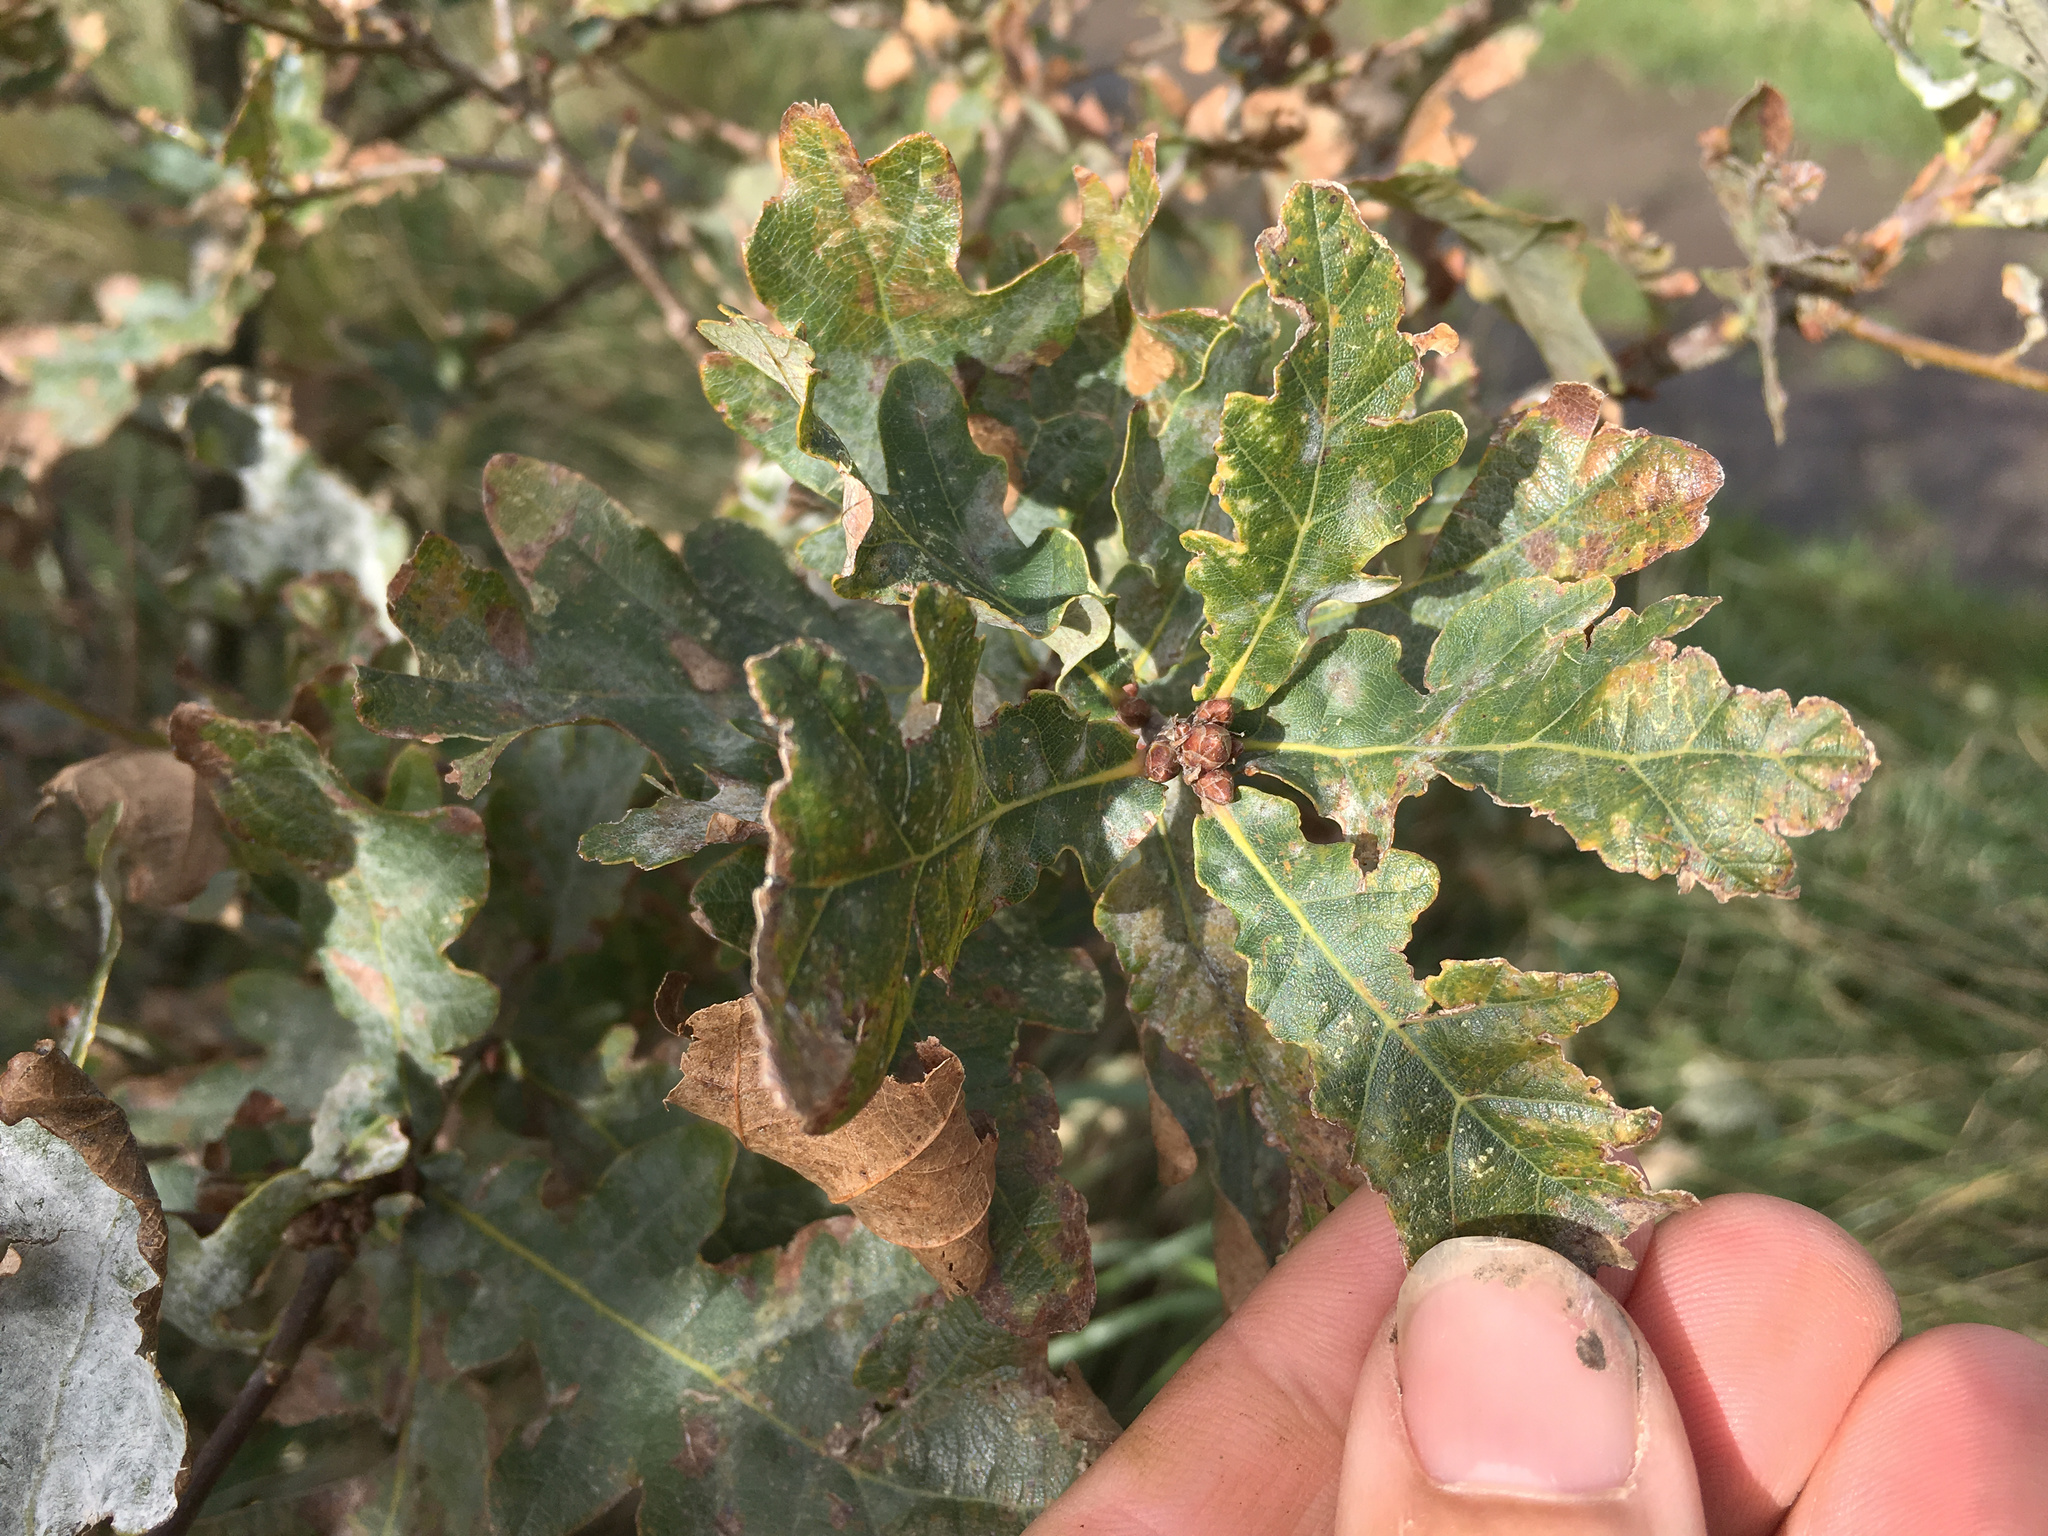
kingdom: Plantae
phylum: Tracheophyta
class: Magnoliopsida
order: Fagales
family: Fagaceae
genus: Quercus
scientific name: Quercus robur
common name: Pedunculate oak
